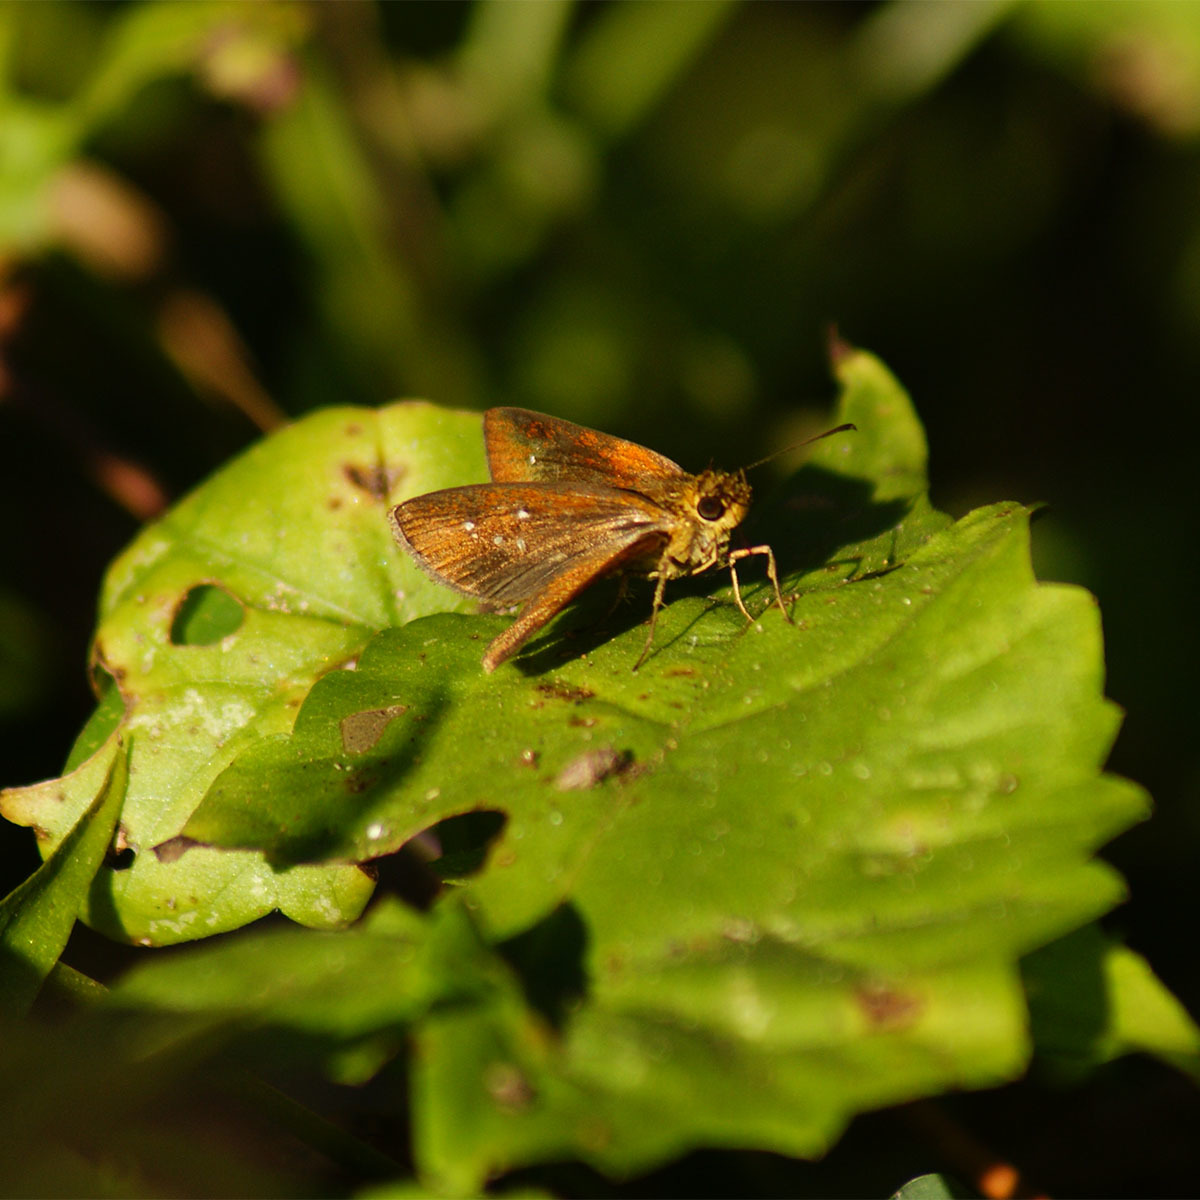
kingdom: Animalia
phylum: Arthropoda
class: Insecta
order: Lepidoptera
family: Hesperiidae
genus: Iambrix
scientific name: Iambrix salsala
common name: Chestnut bob
